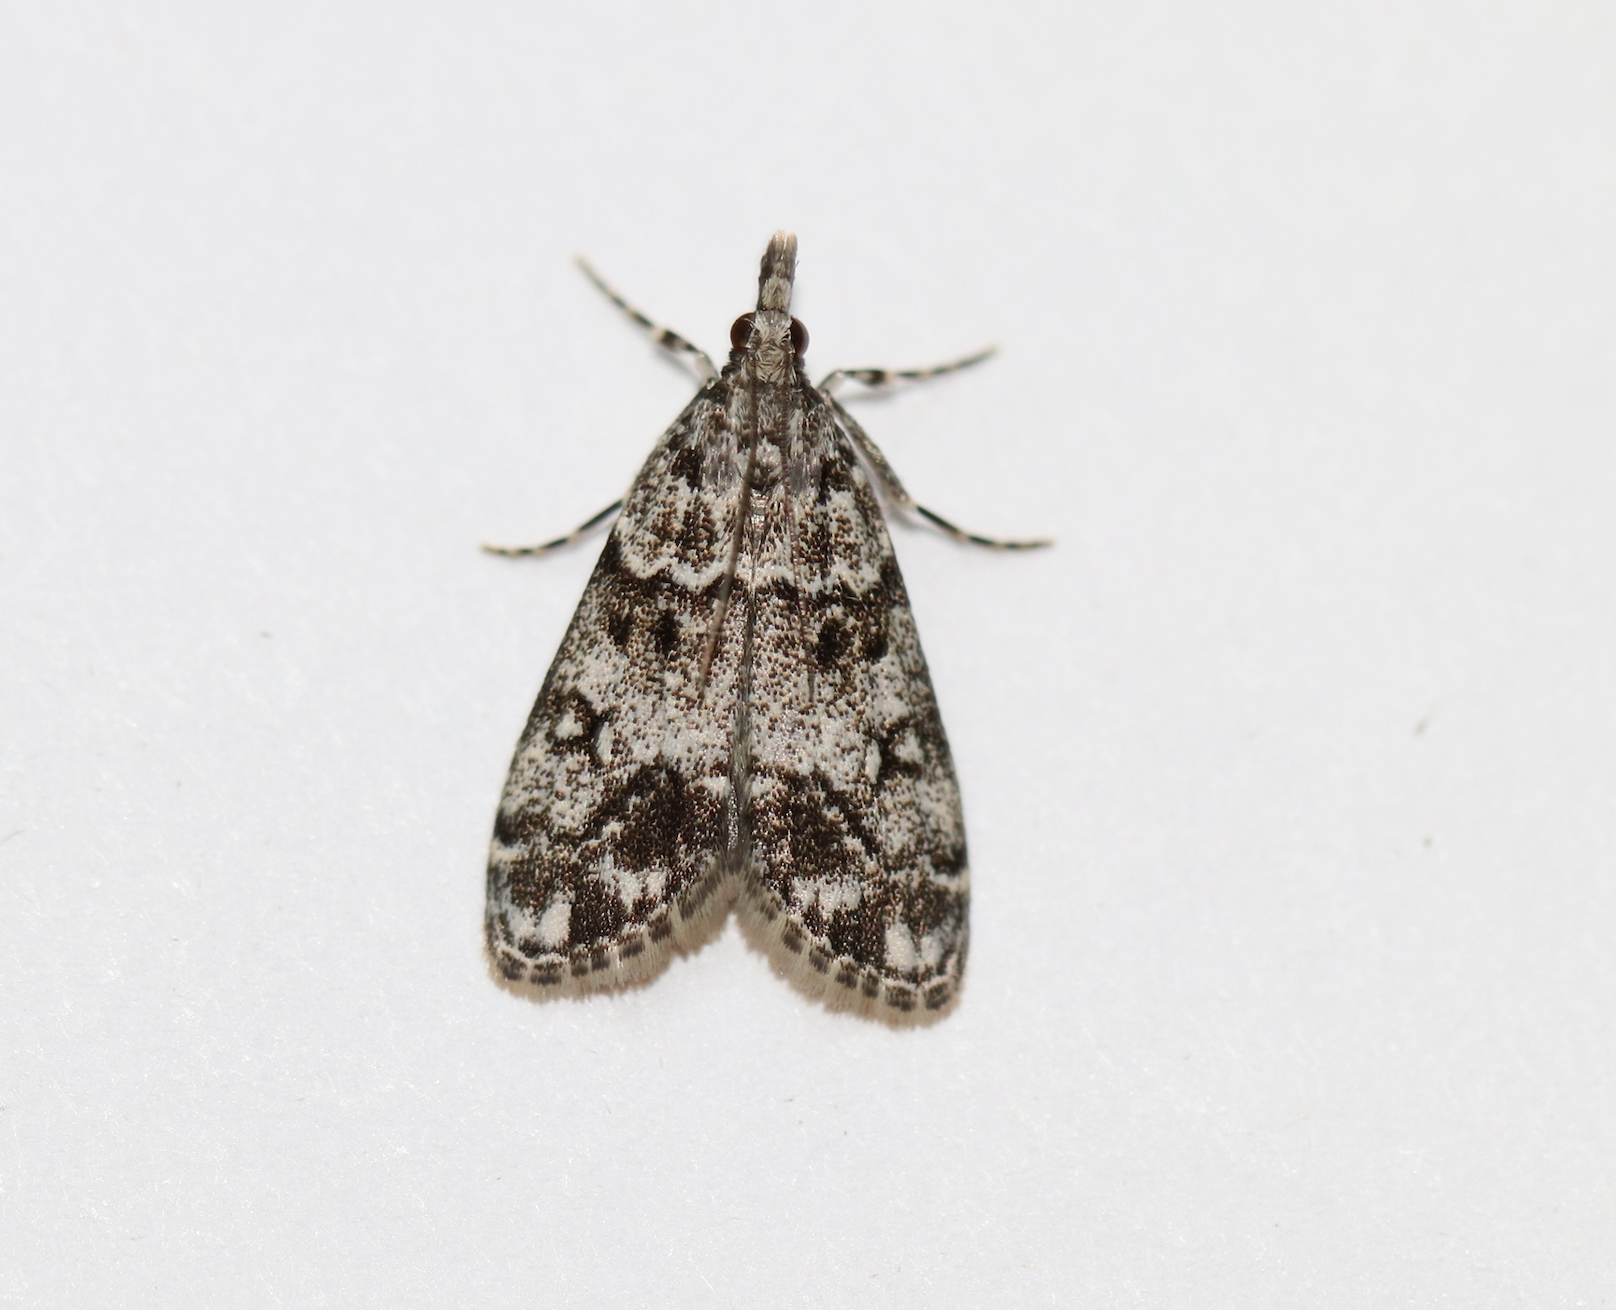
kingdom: Animalia
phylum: Arthropoda
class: Insecta
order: Lepidoptera
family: Crambidae
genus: Eudonia
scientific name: Eudonia lacustrata
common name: Little grey
